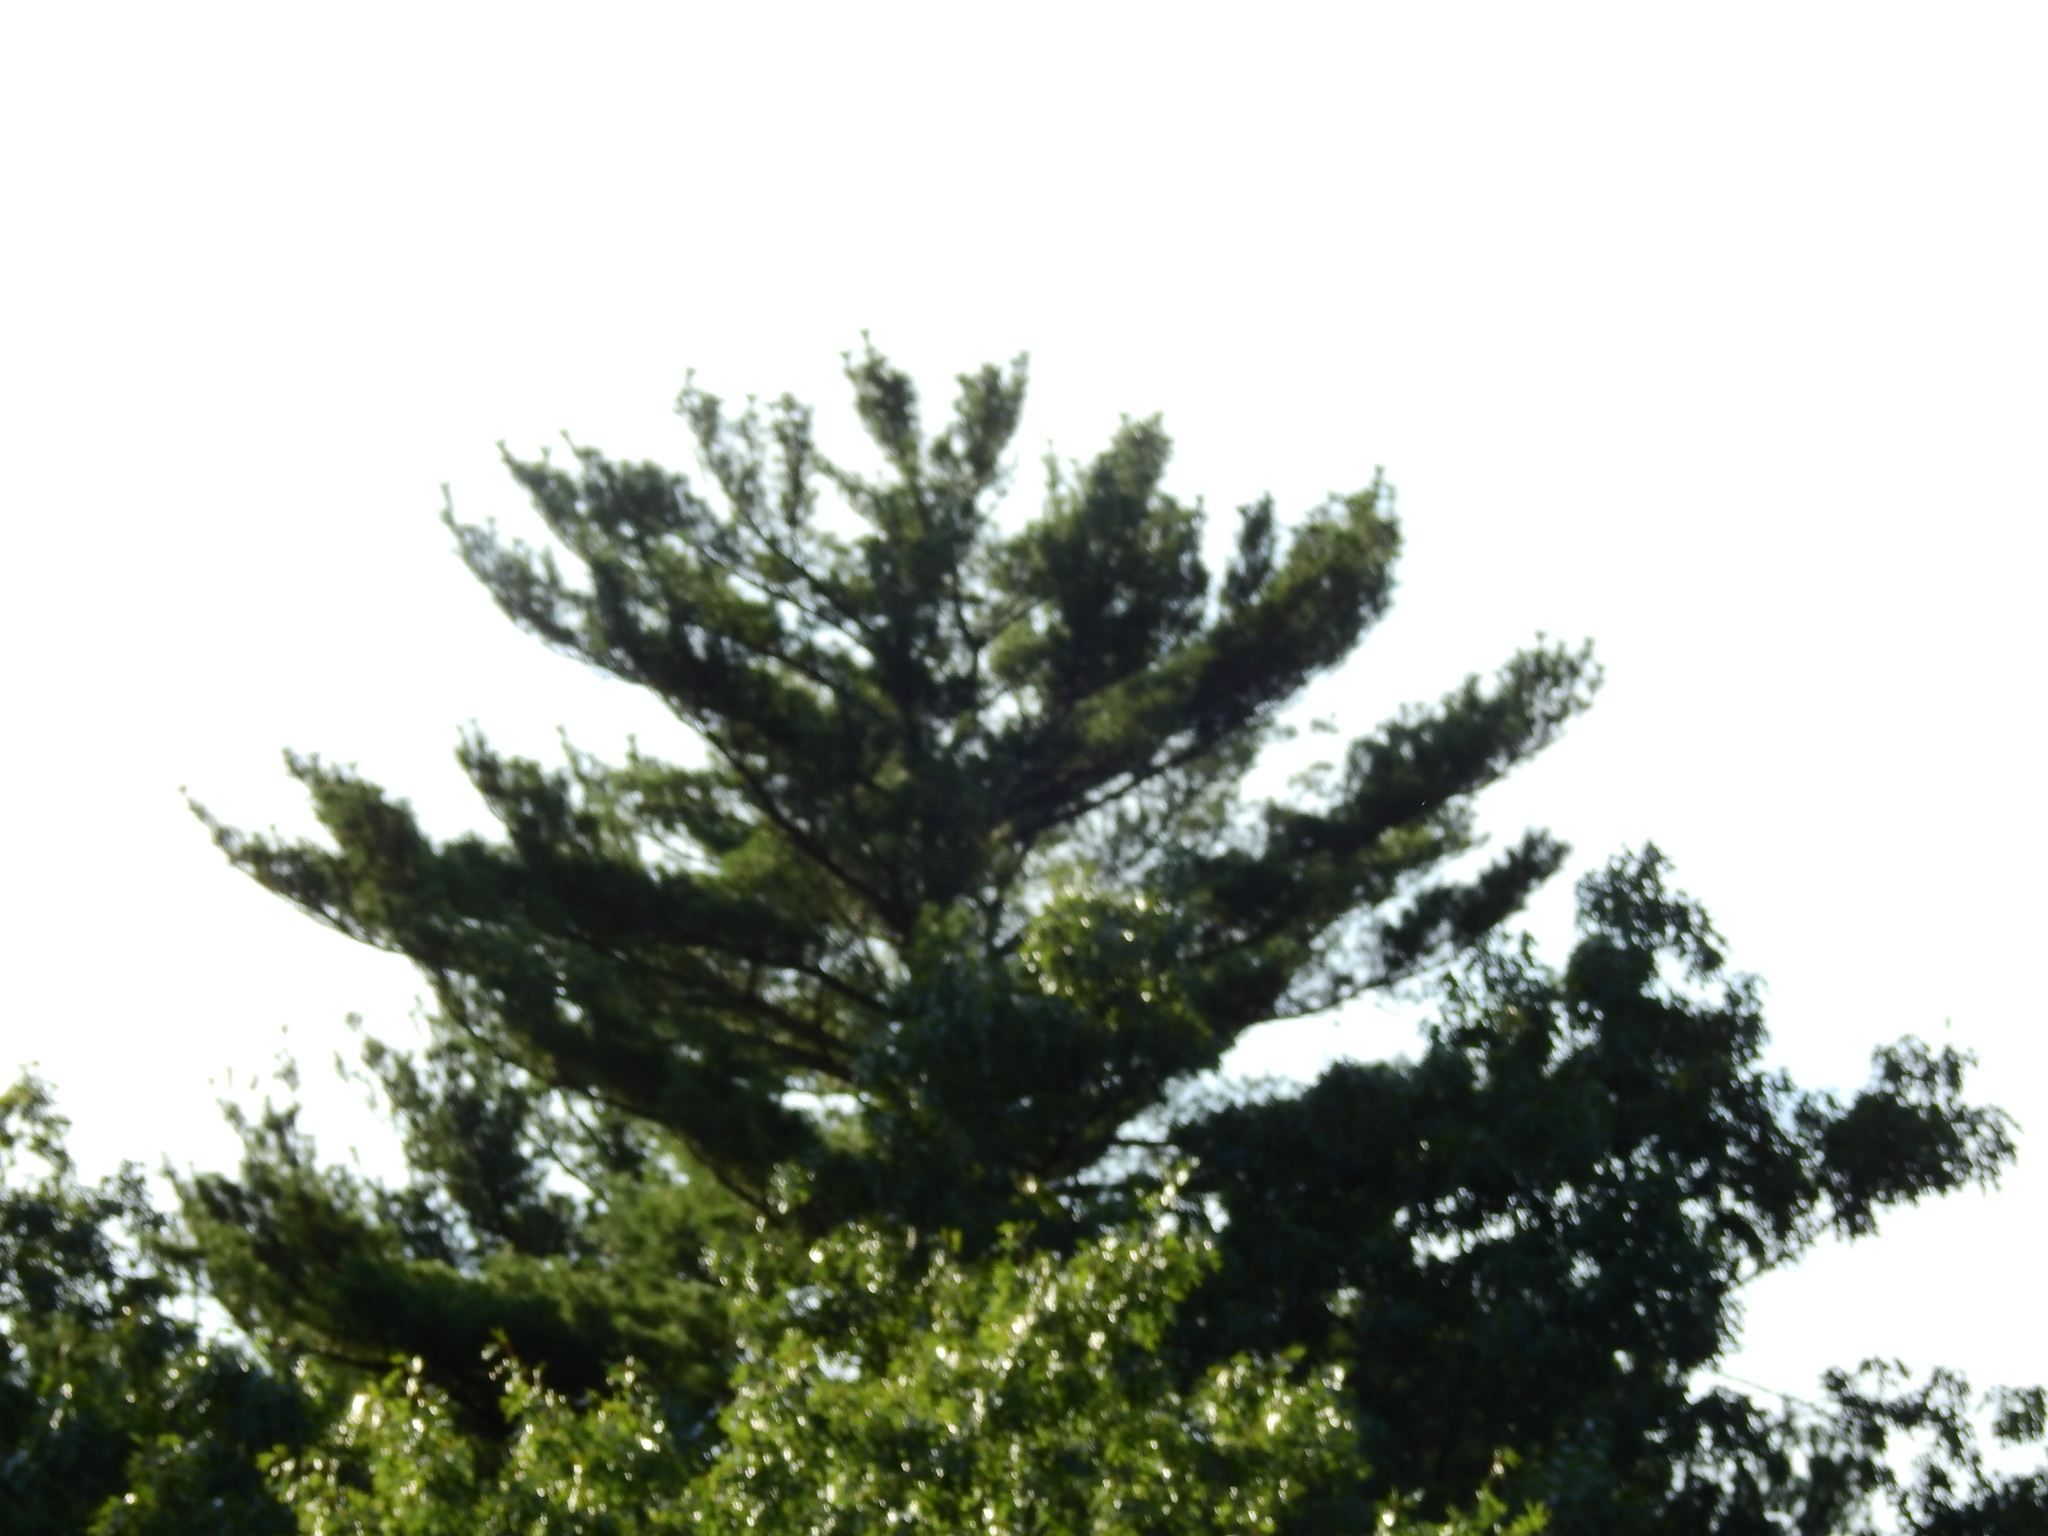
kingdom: Plantae
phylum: Tracheophyta
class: Pinopsida
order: Pinales
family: Pinaceae
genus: Pinus
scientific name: Pinus strobus
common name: Weymouth pine
